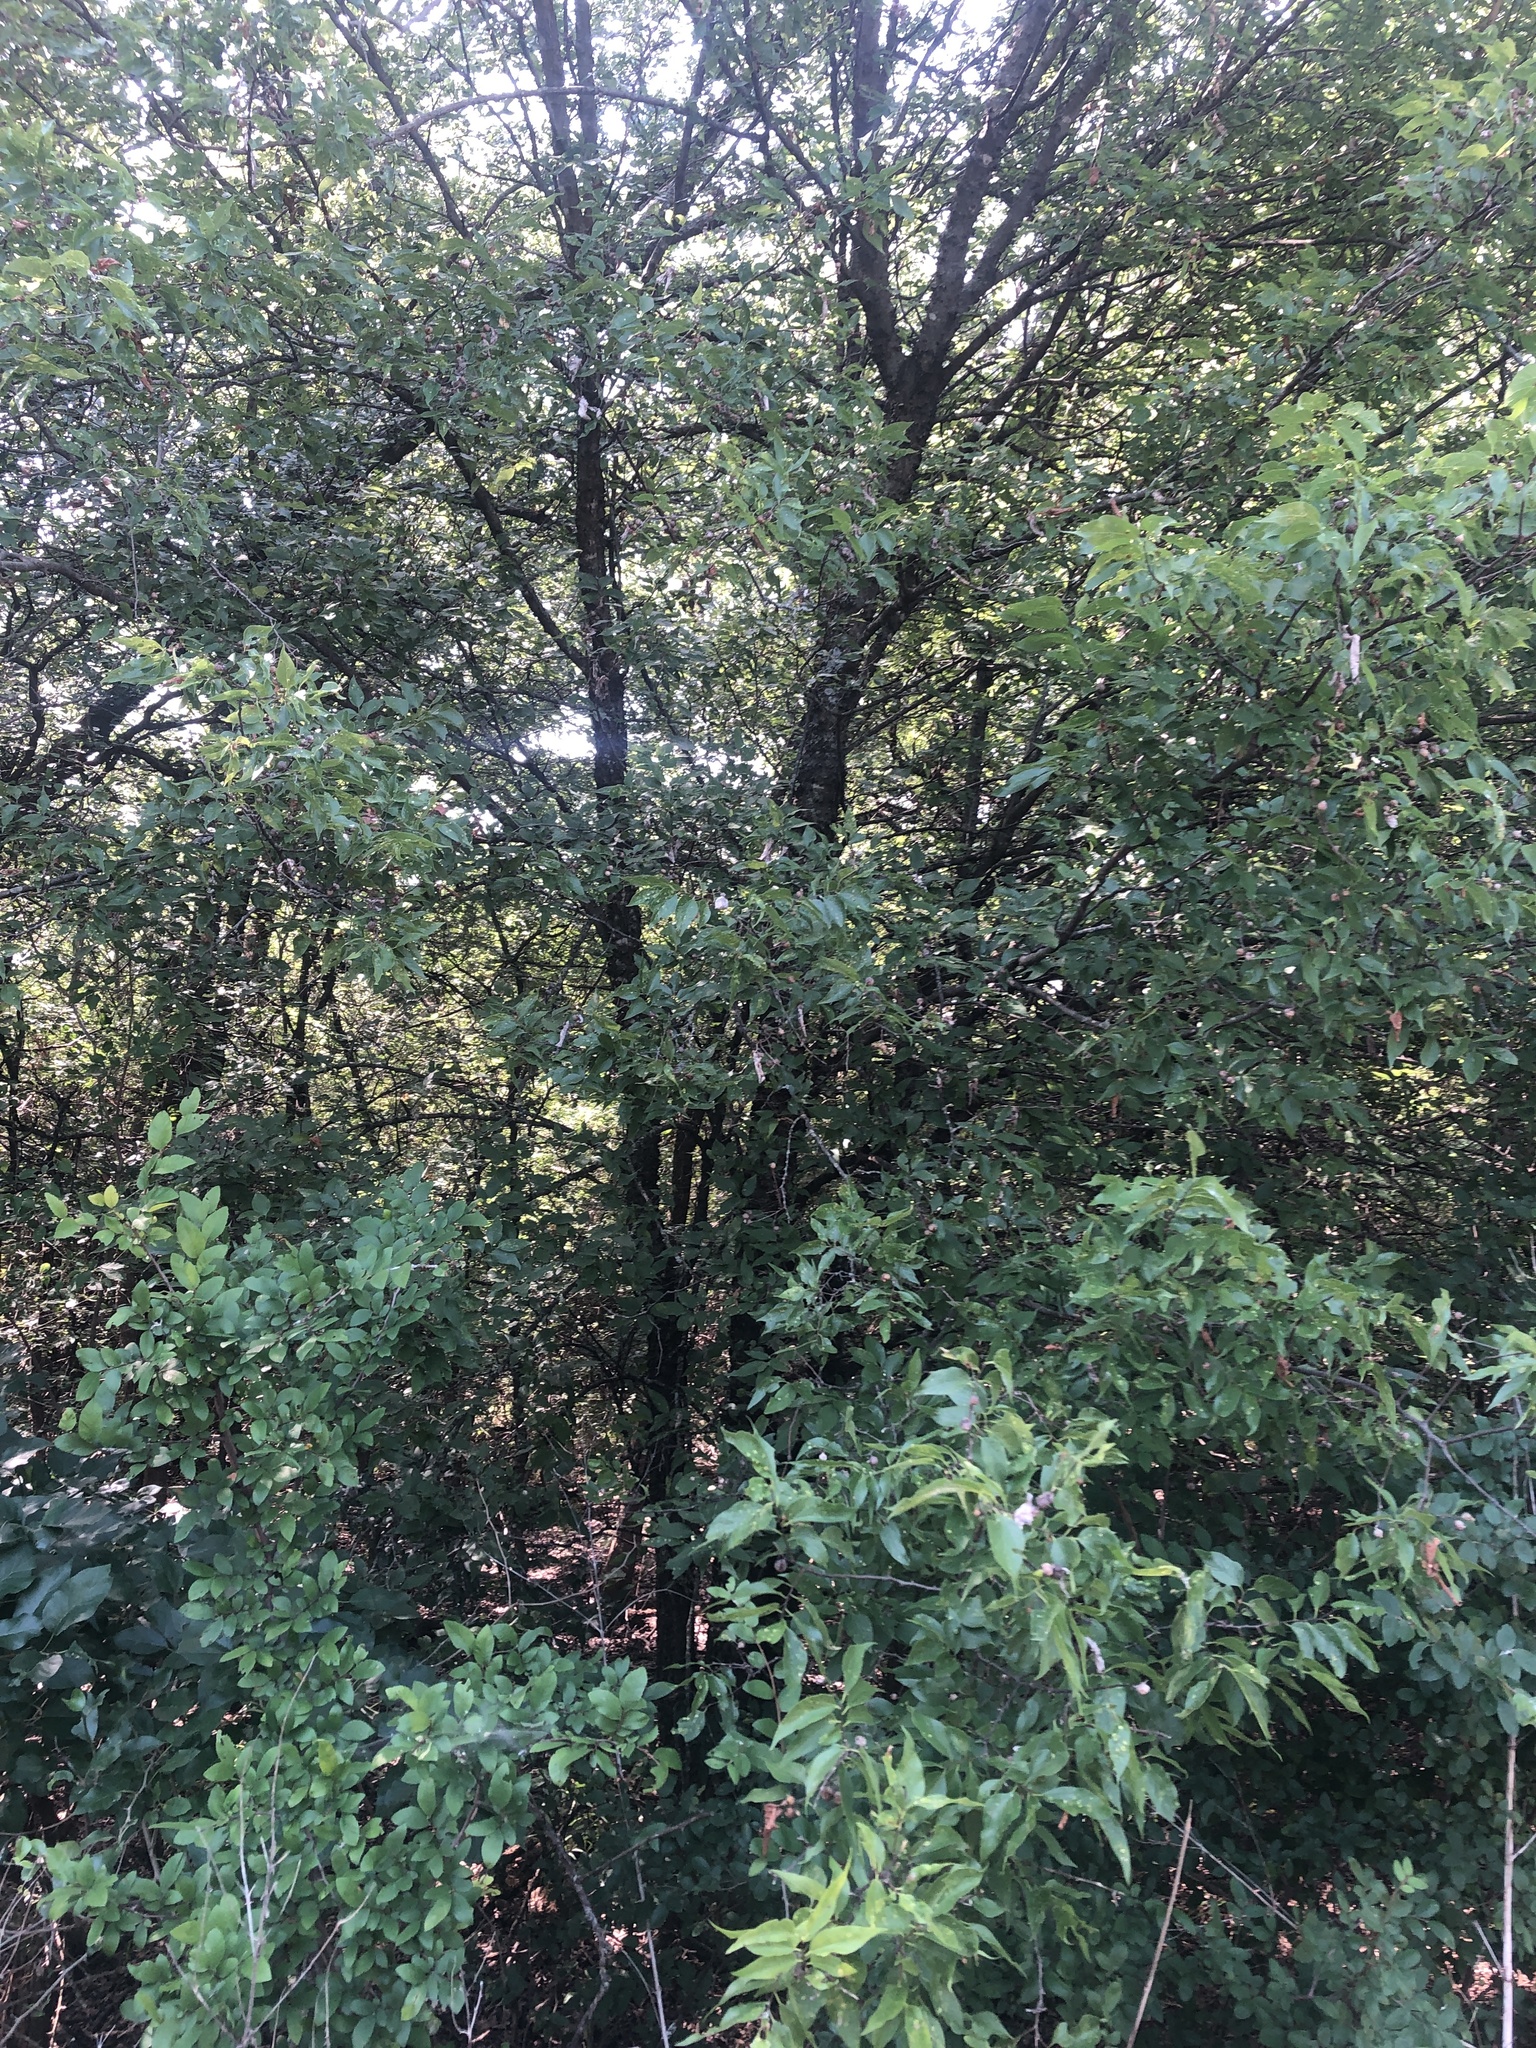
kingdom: Animalia
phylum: Chordata
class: Aves
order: Passeriformes
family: Vireonidae
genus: Vireo
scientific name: Vireo griseus
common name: White-eyed vireo
